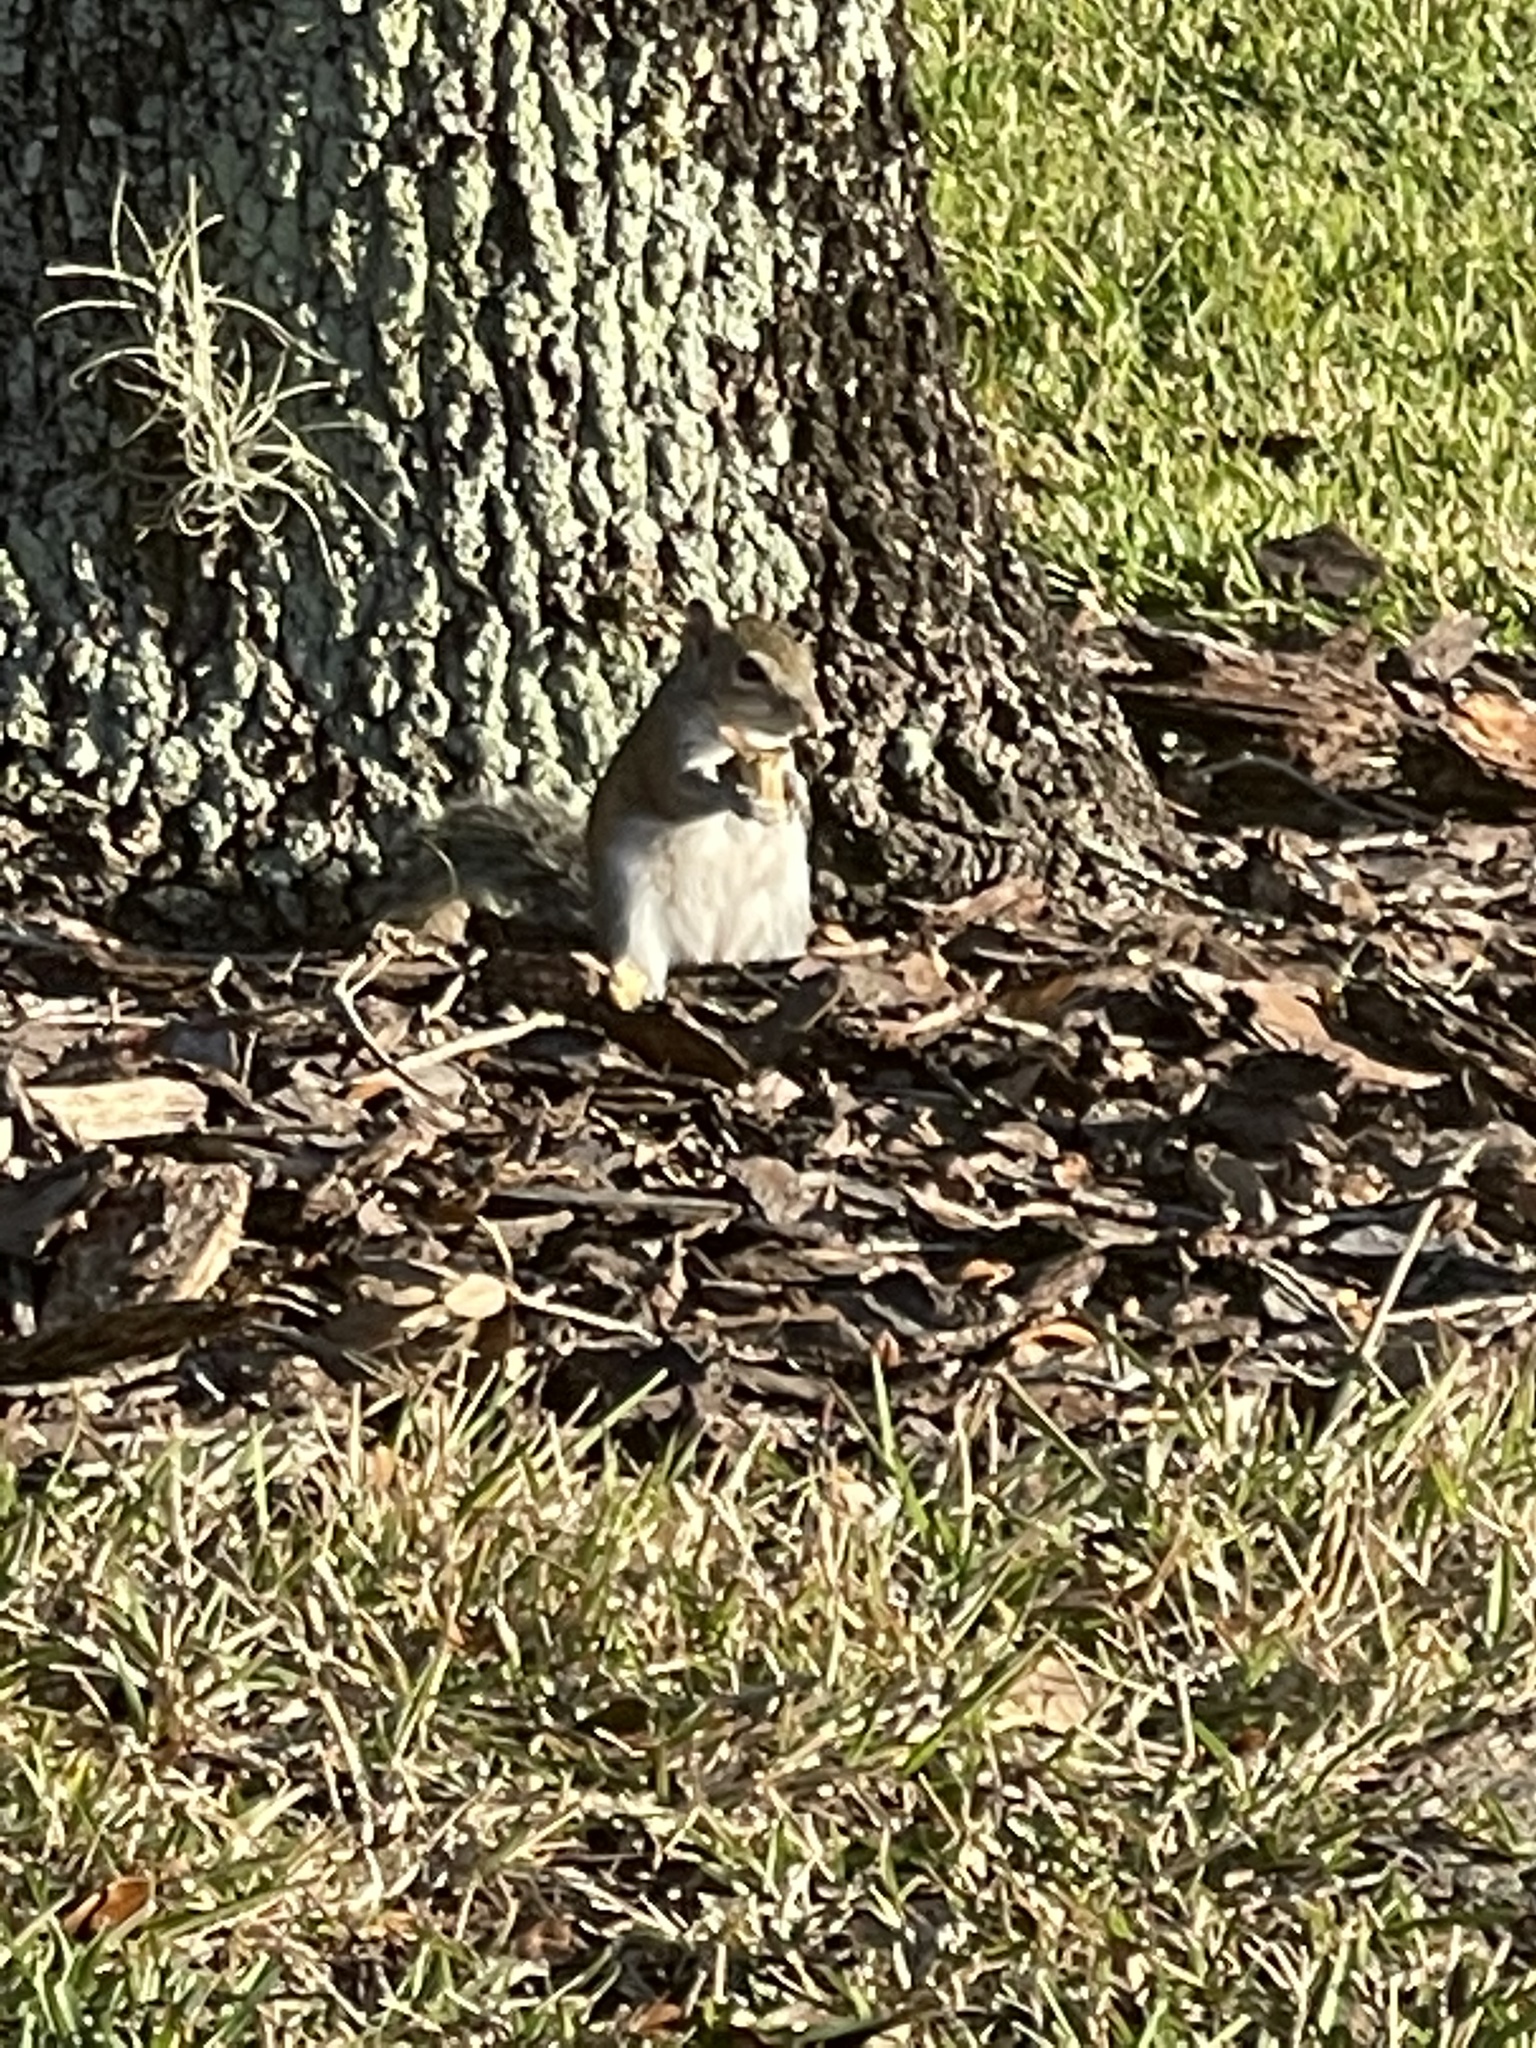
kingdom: Animalia
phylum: Chordata
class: Mammalia
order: Rodentia
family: Sciuridae
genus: Sciurus
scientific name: Sciurus carolinensis
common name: Eastern gray squirrel
